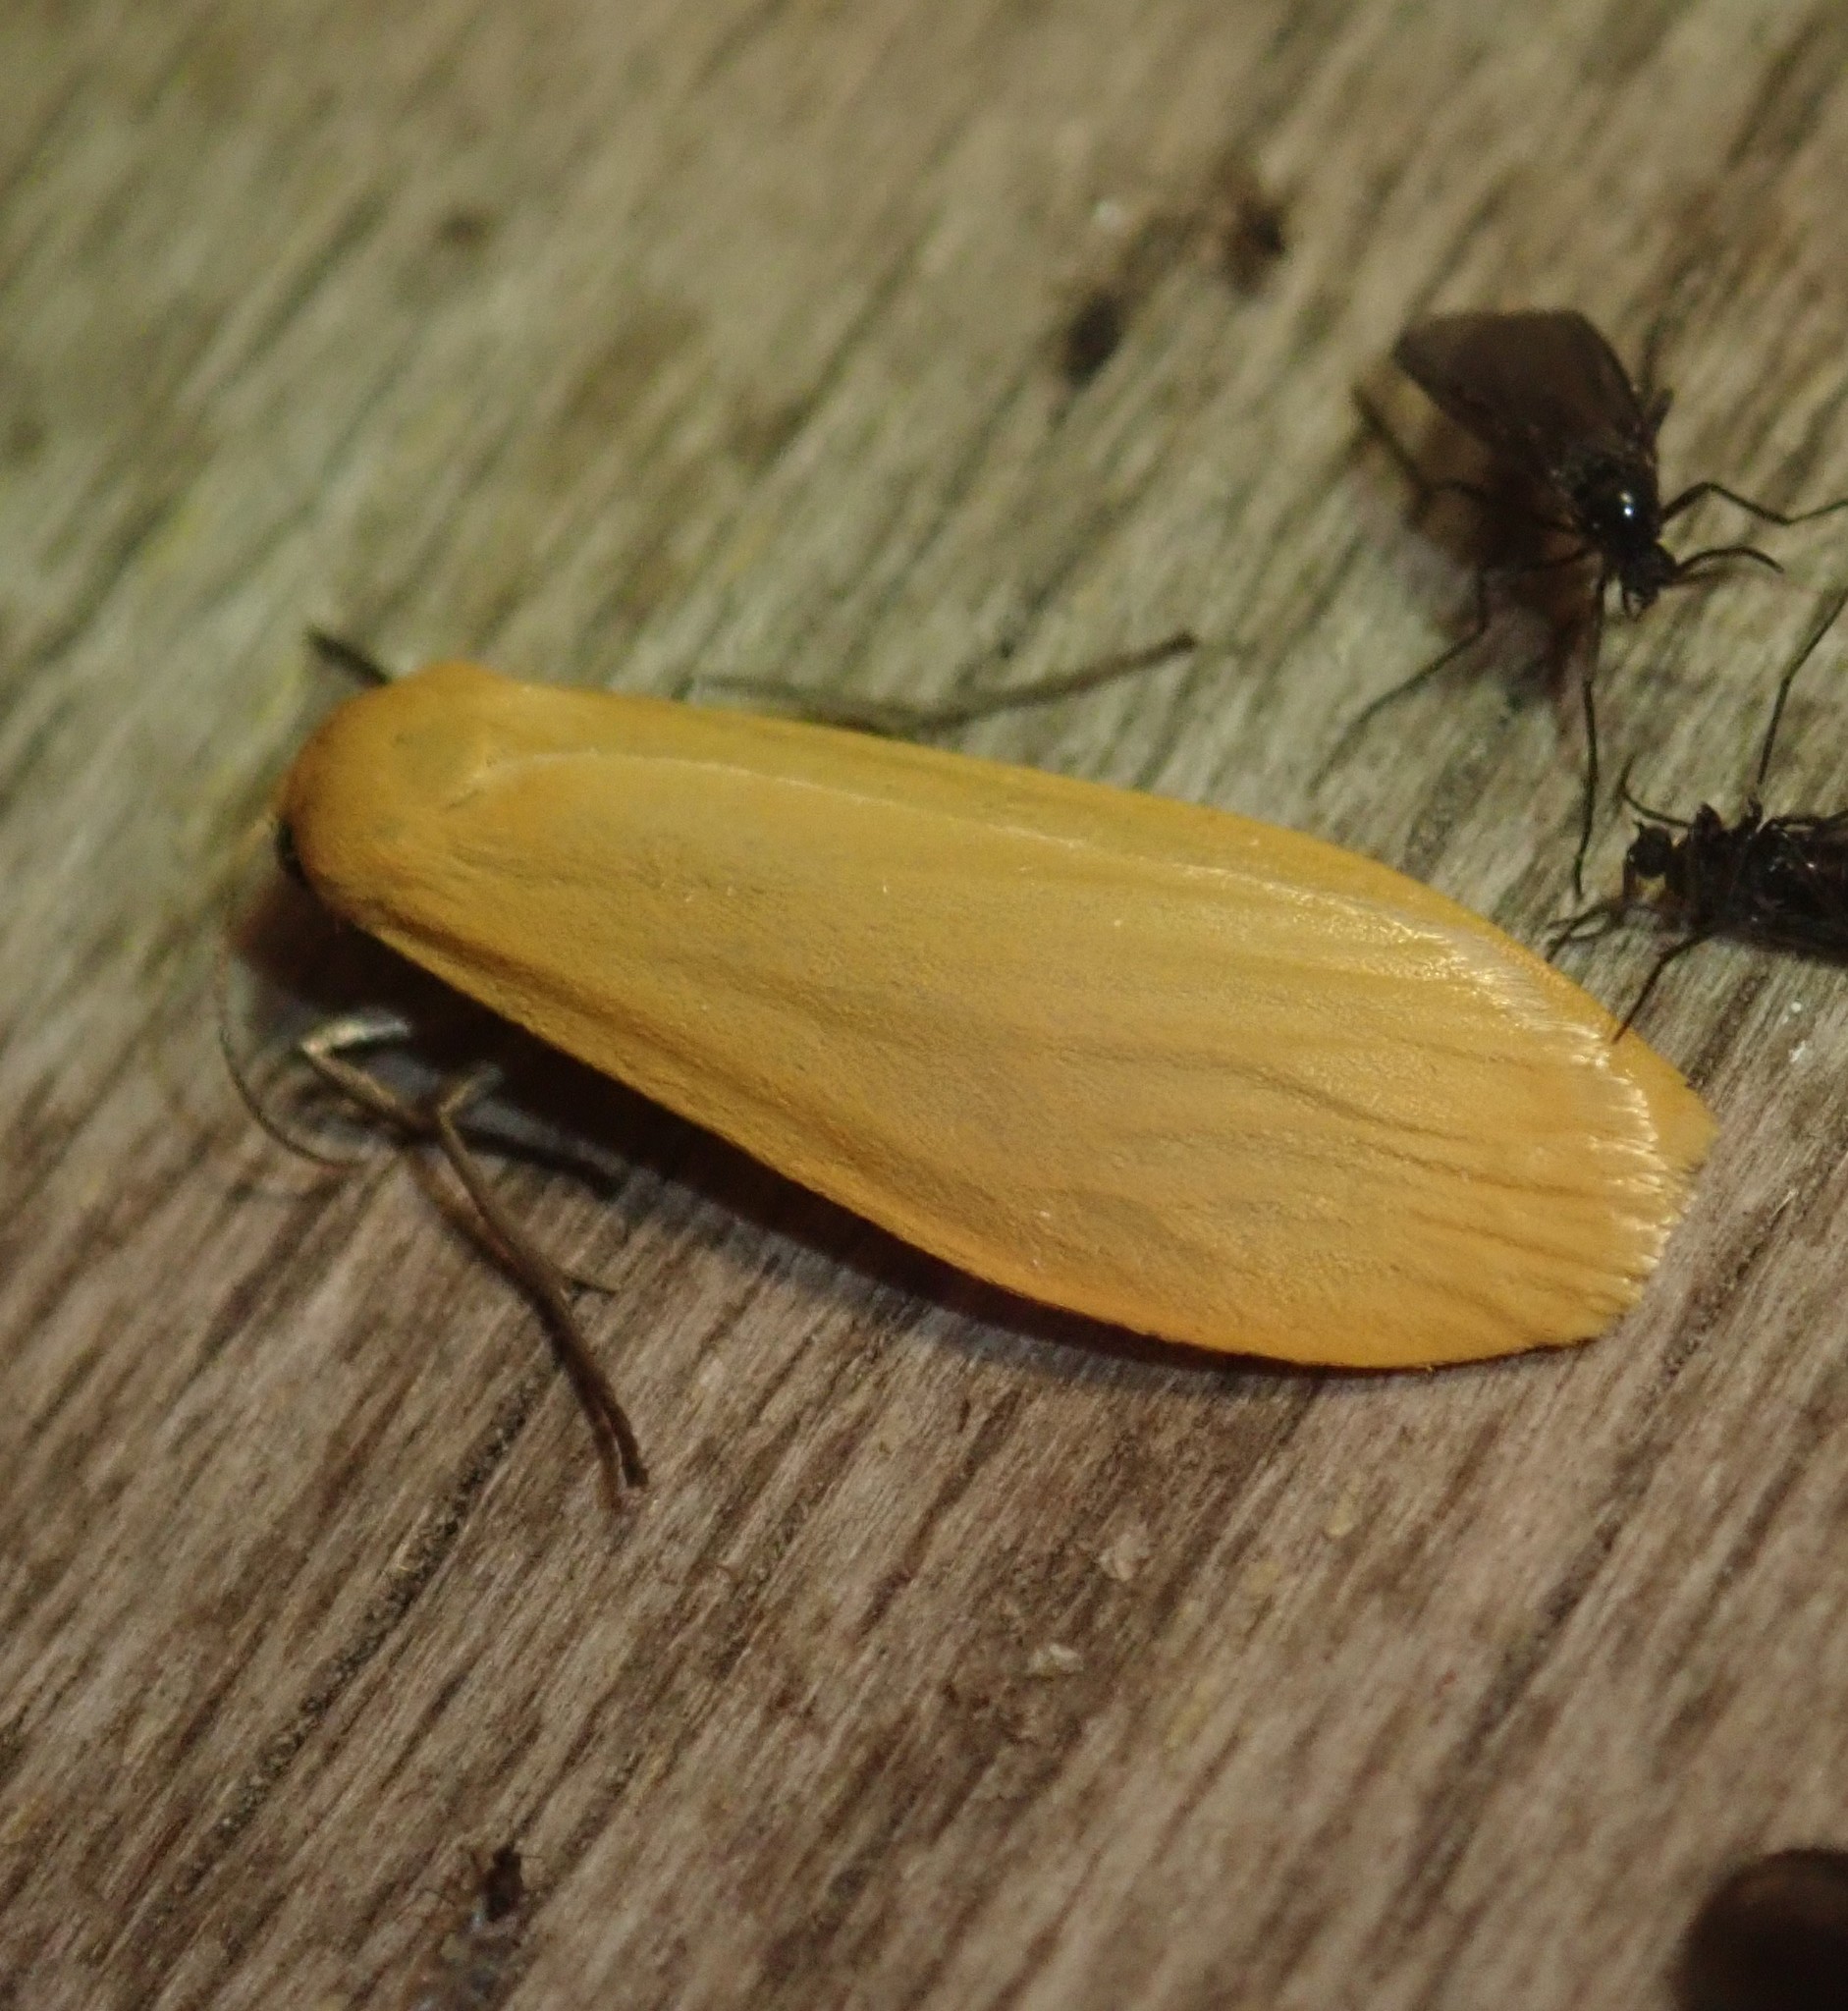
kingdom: Animalia
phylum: Arthropoda
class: Insecta
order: Lepidoptera
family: Erebidae
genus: Wittia
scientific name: Wittia sororcula
